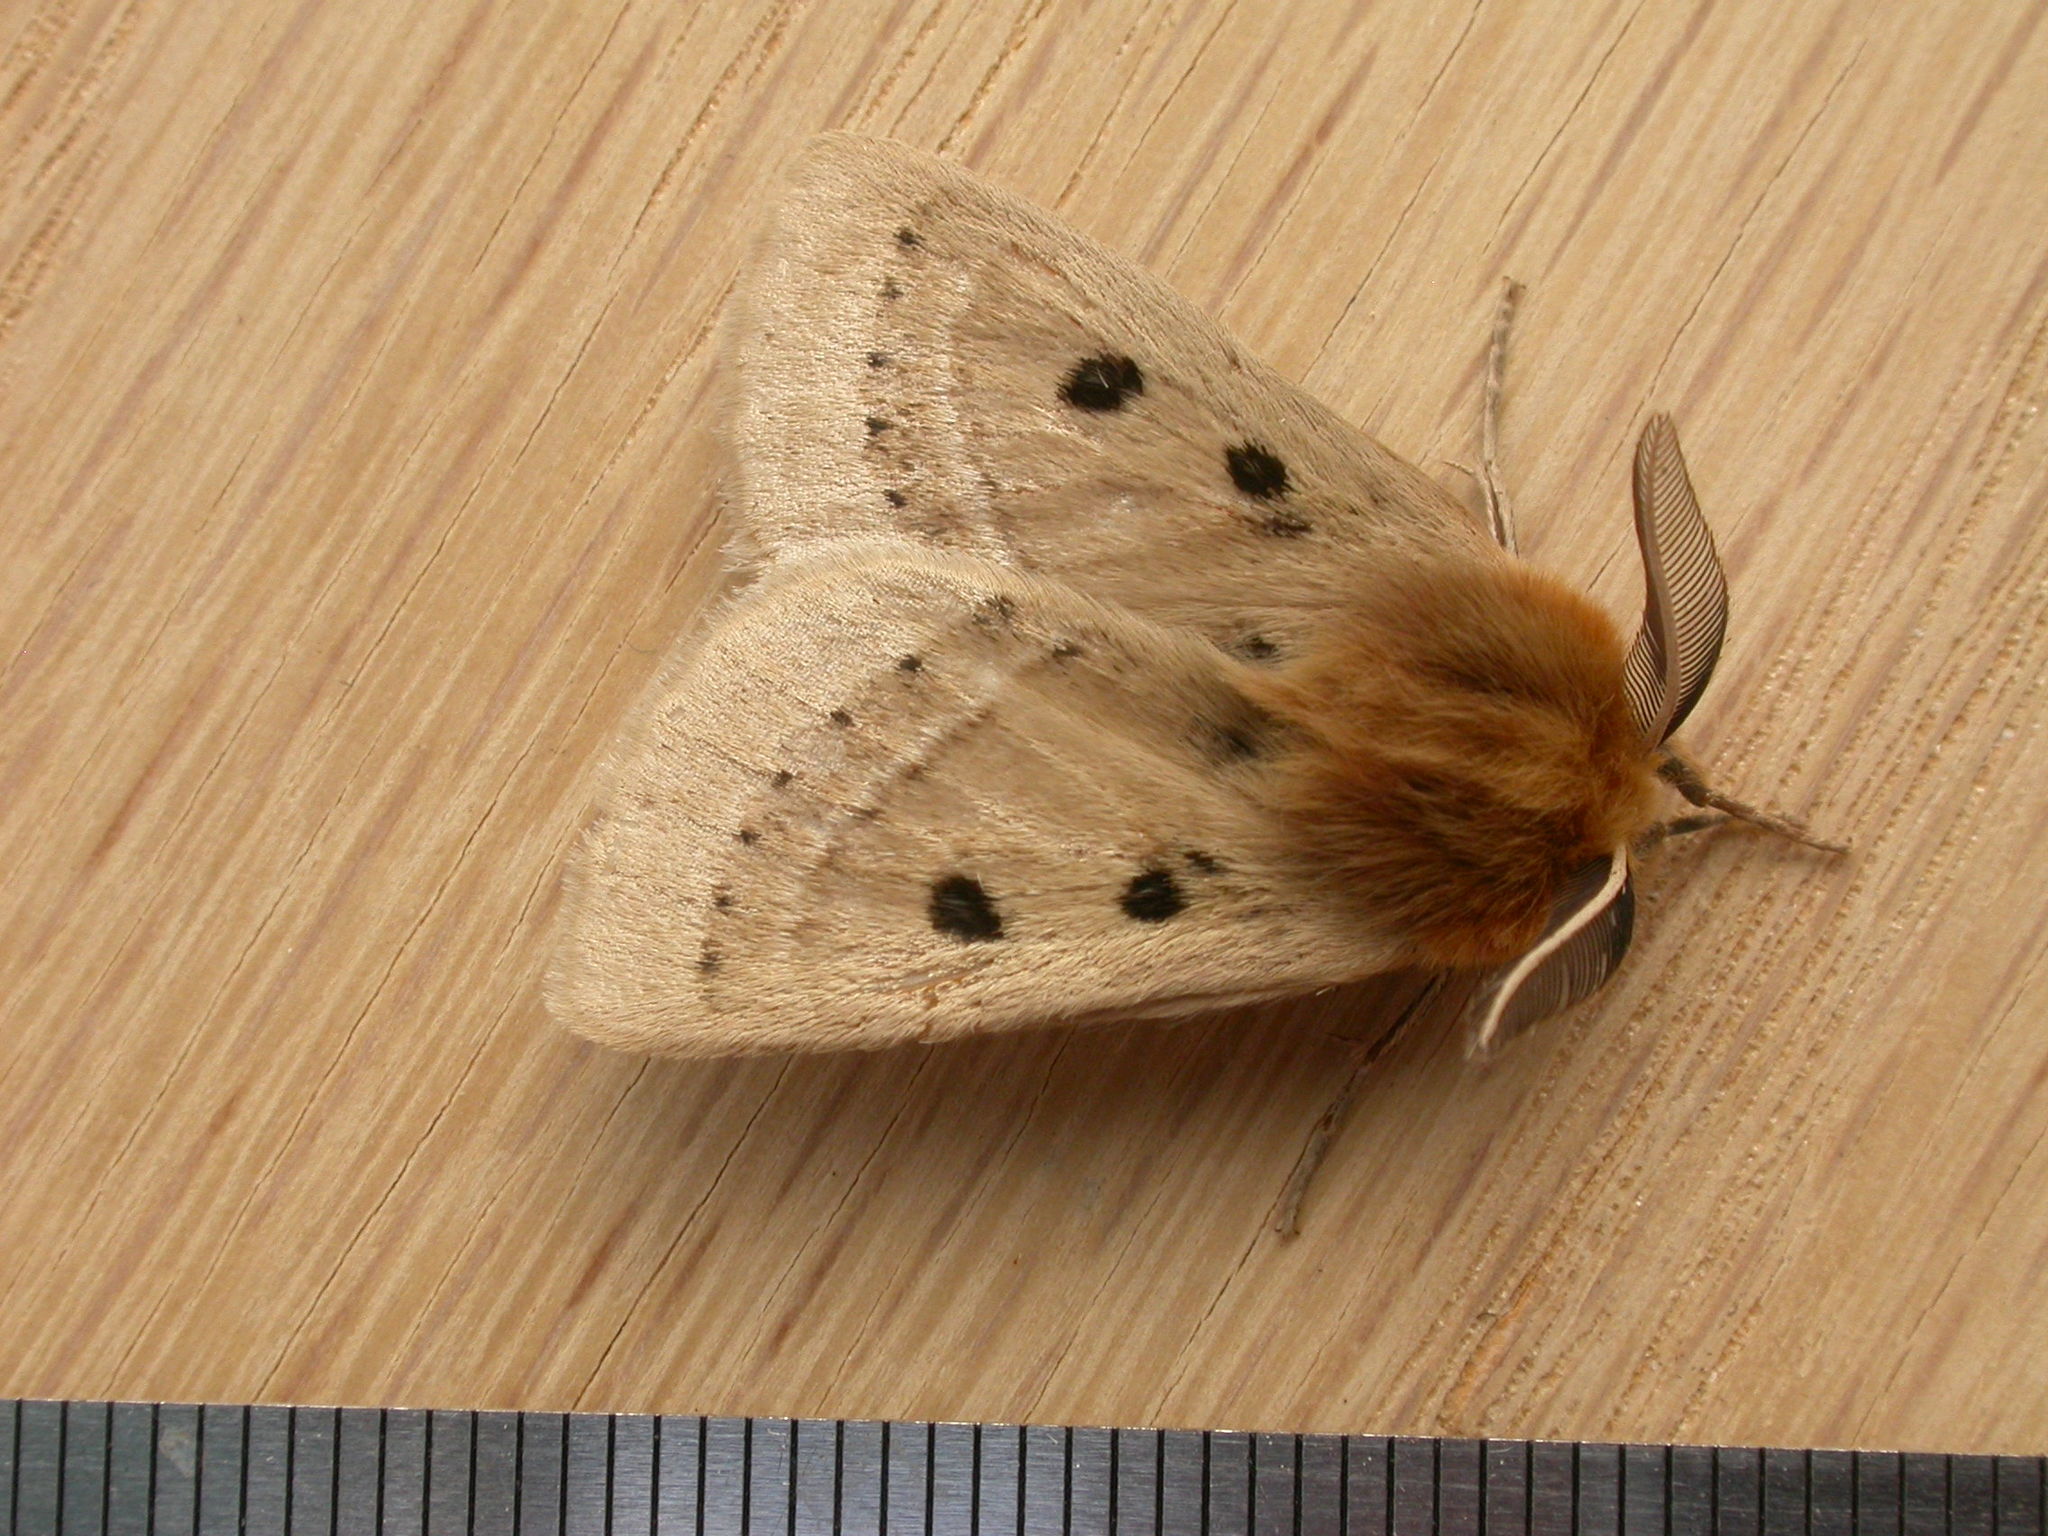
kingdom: Animalia
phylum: Arthropoda
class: Insecta
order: Lepidoptera
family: Anthelidae
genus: Anthela
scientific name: Anthela ocellata
